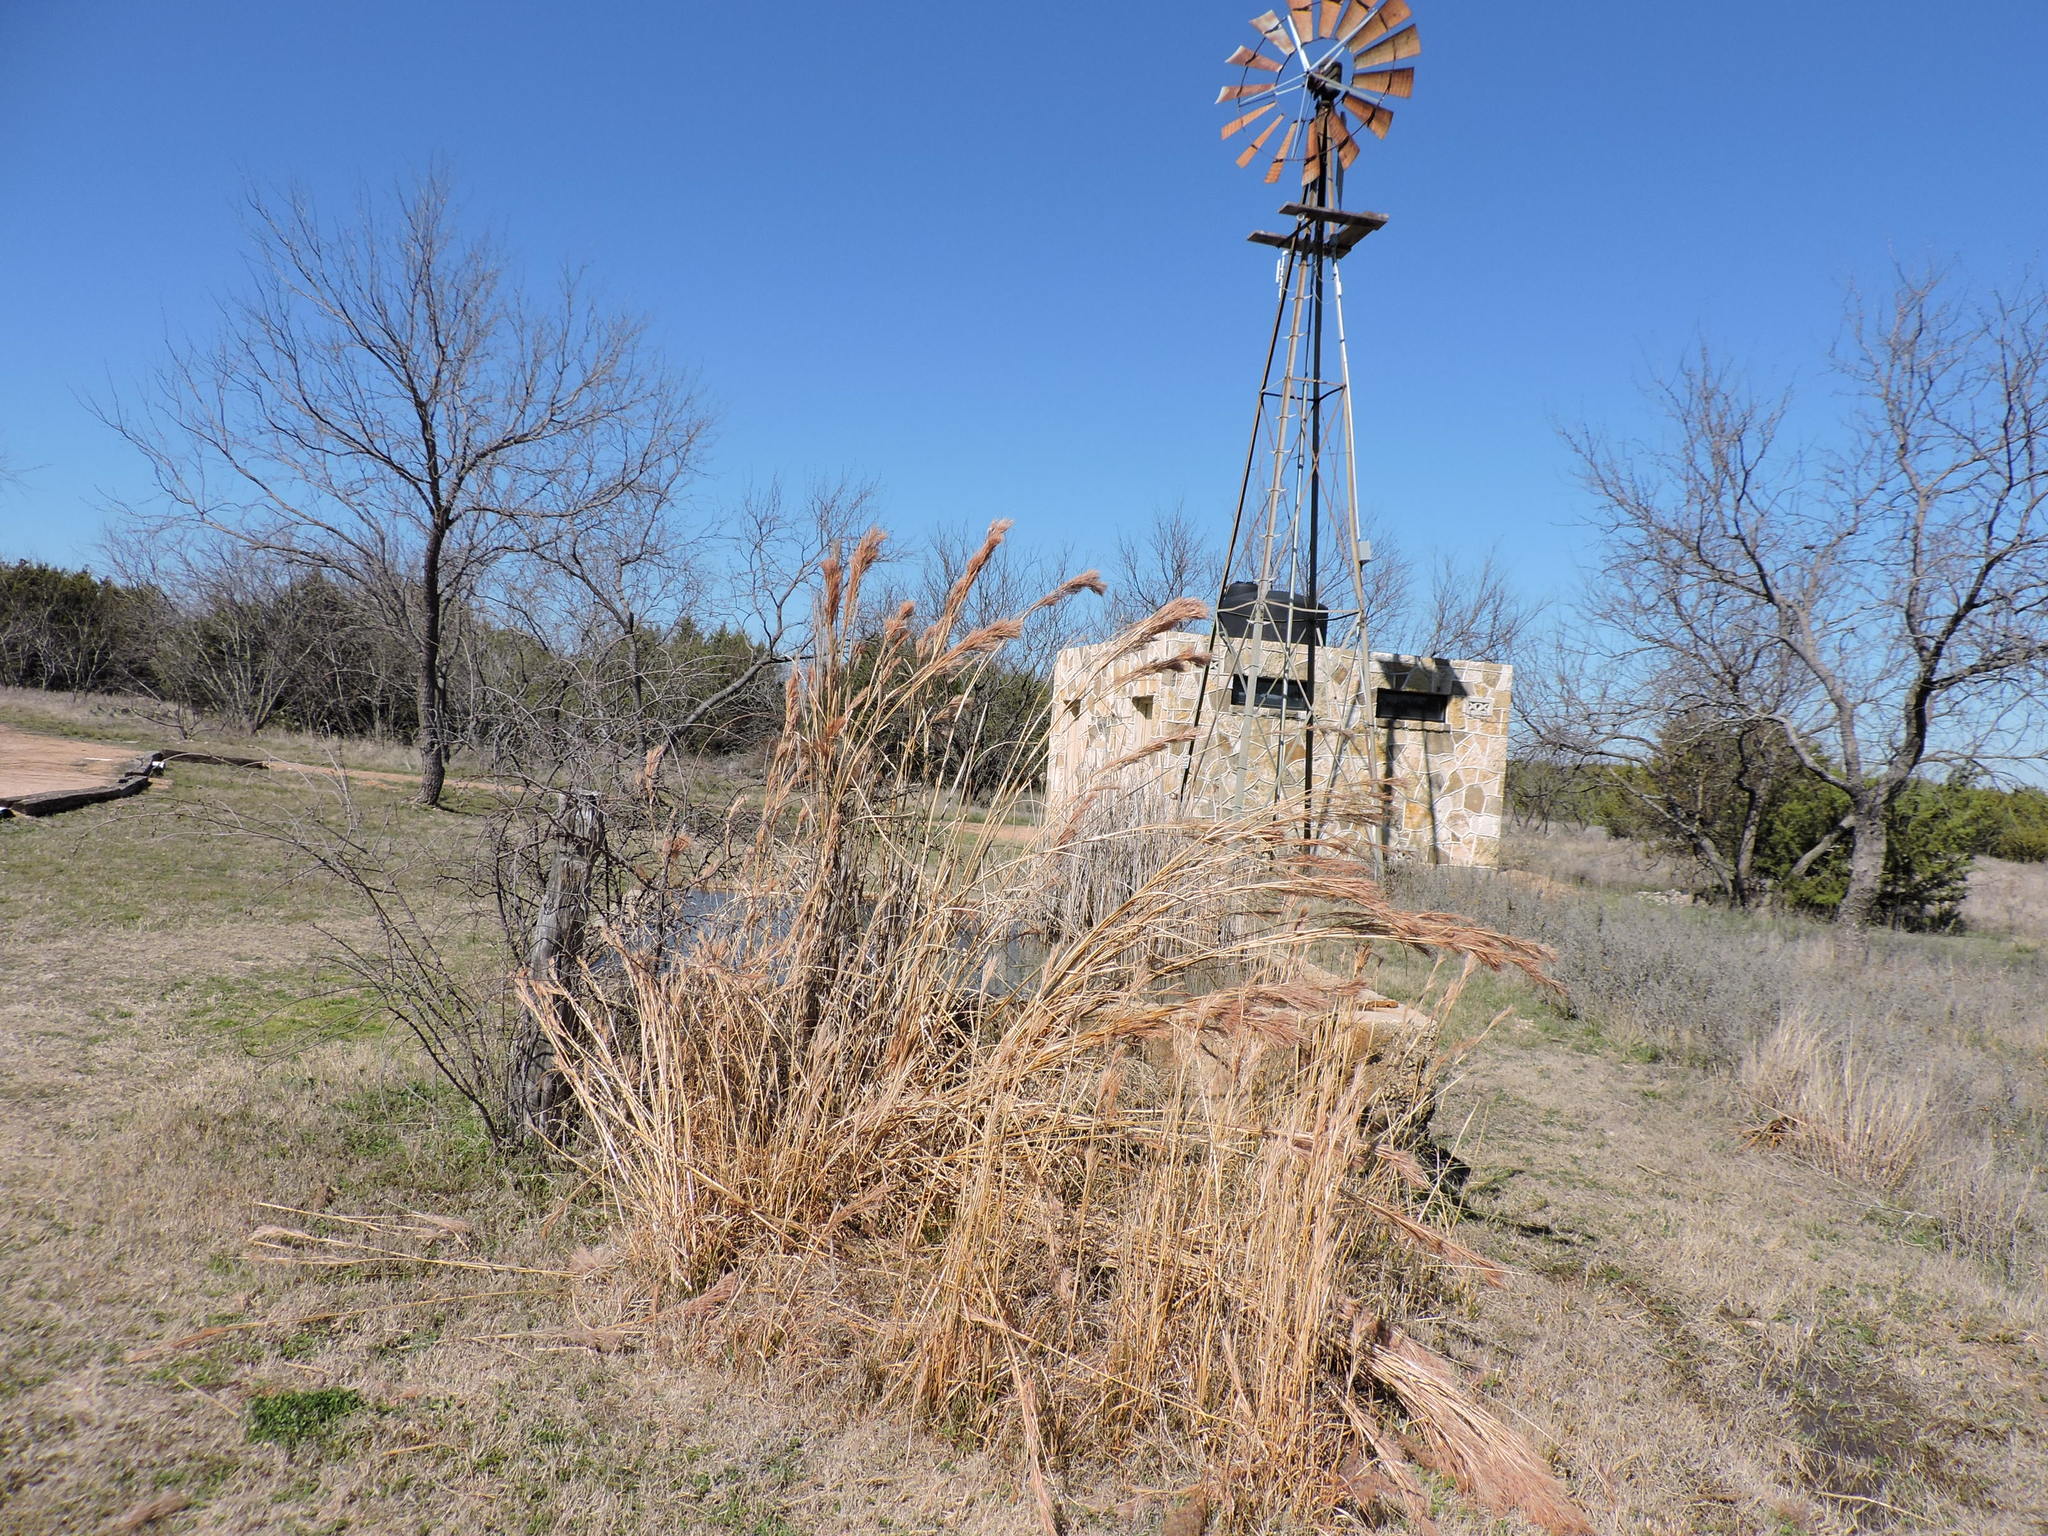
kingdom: Plantae
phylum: Tracheophyta
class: Liliopsida
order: Poales
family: Poaceae
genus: Andropogon
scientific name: Andropogon tenuispatheus
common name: Bushy bluestem
